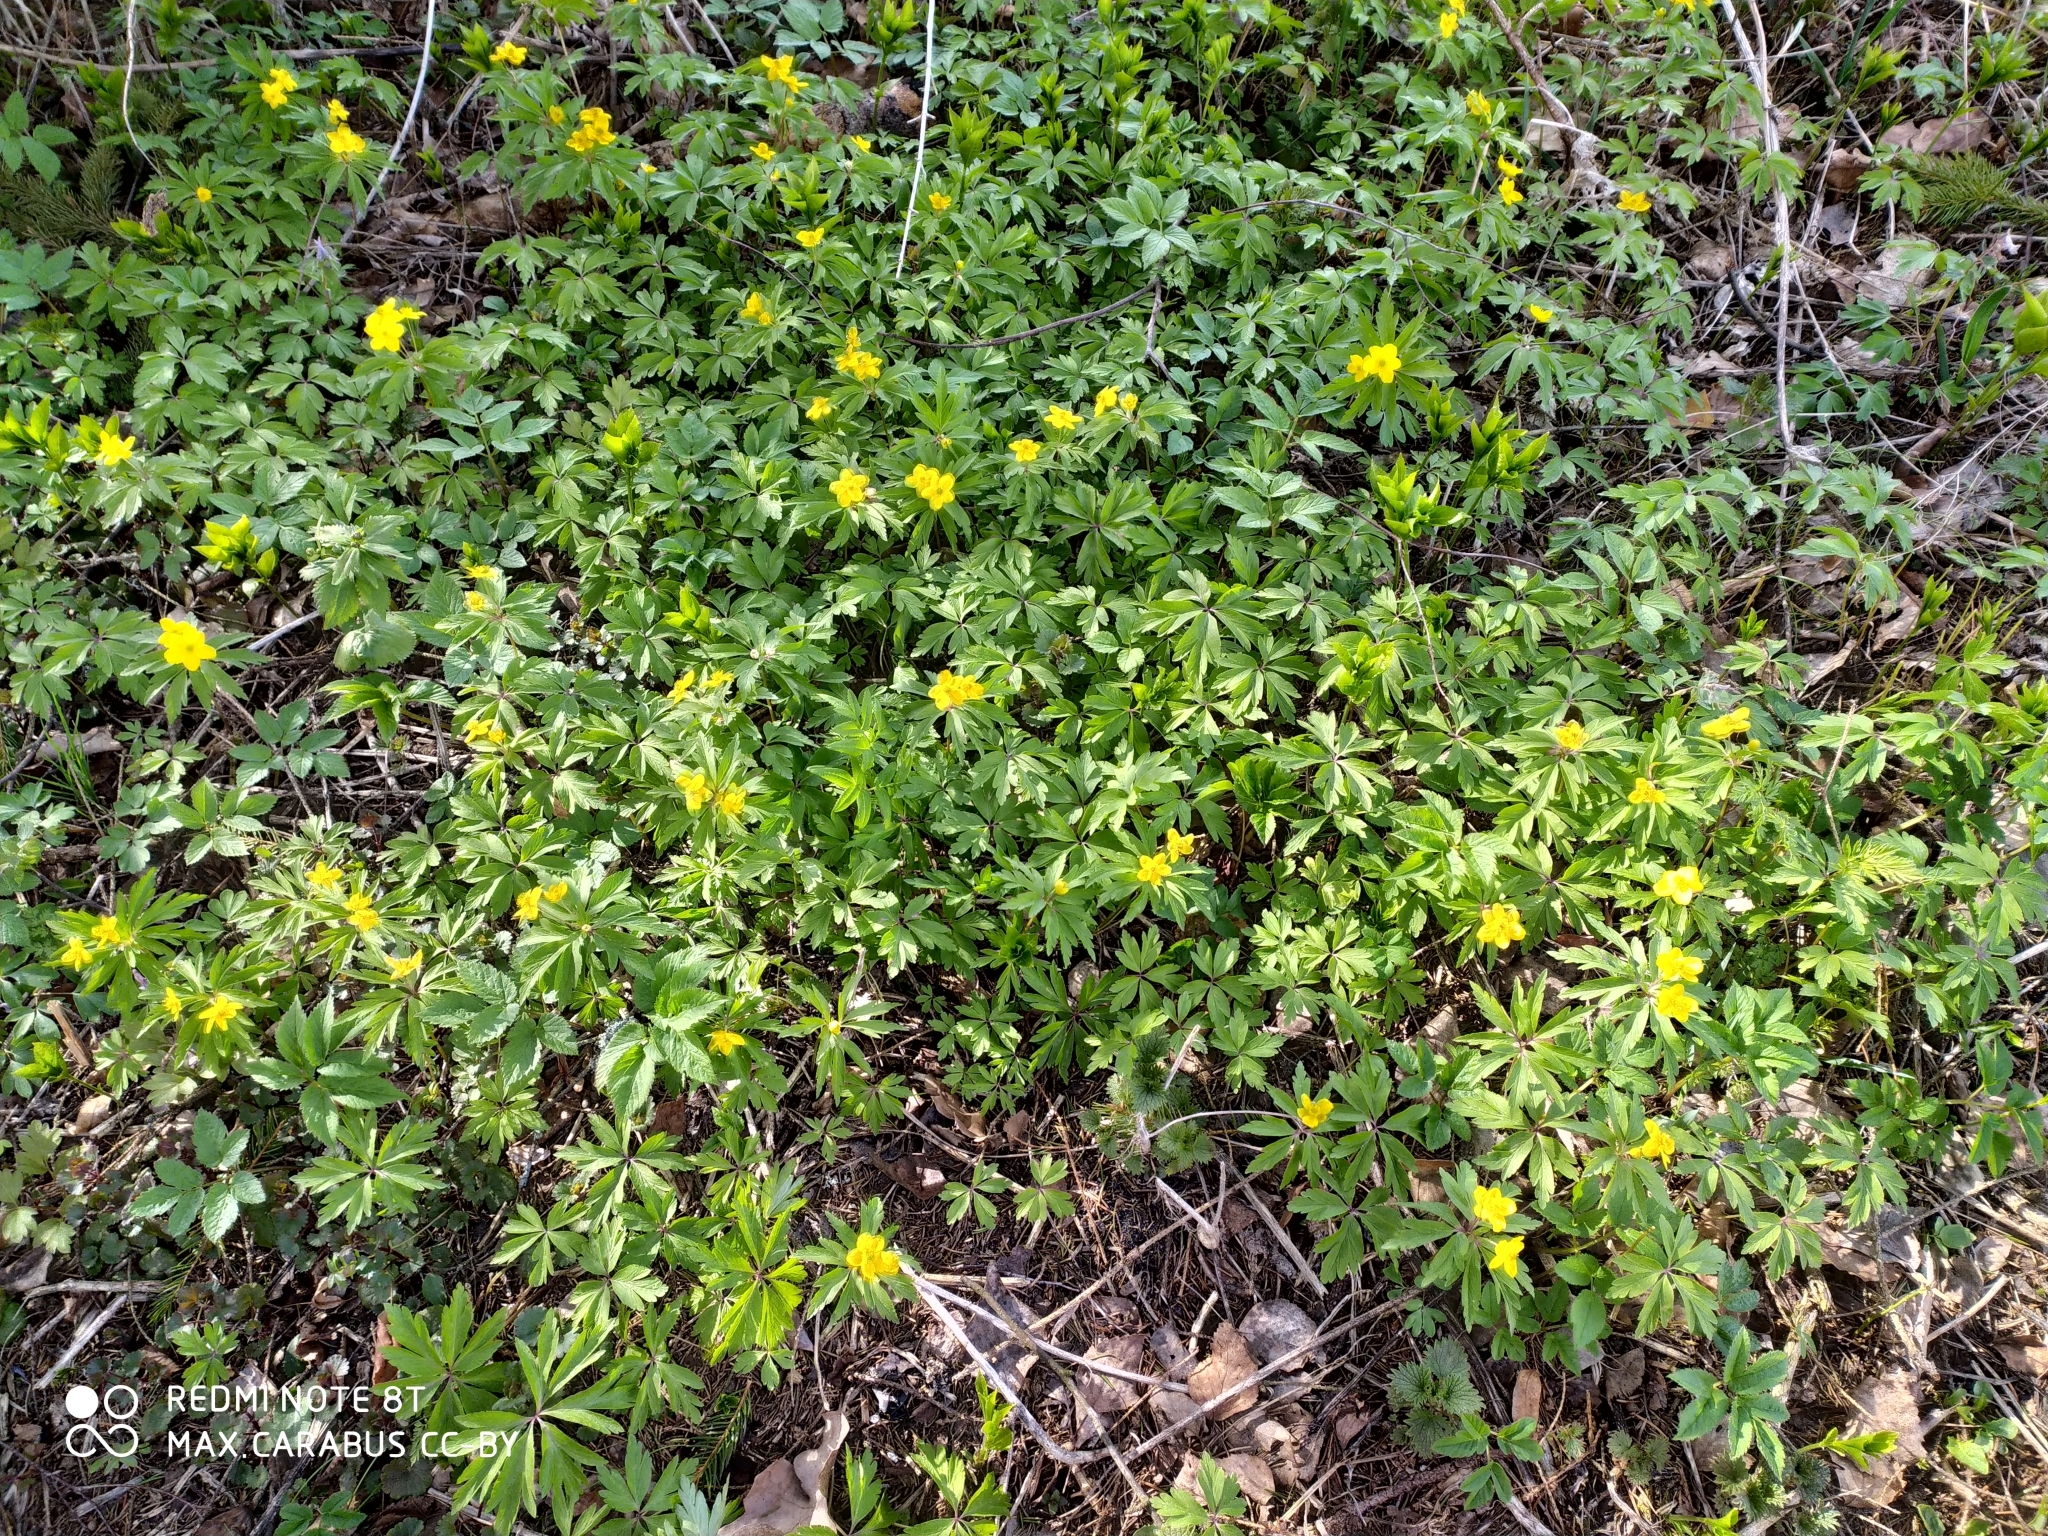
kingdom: Plantae
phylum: Tracheophyta
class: Magnoliopsida
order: Ranunculales
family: Ranunculaceae
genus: Anemone
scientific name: Anemone ranunculoides
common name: Yellow anemone
